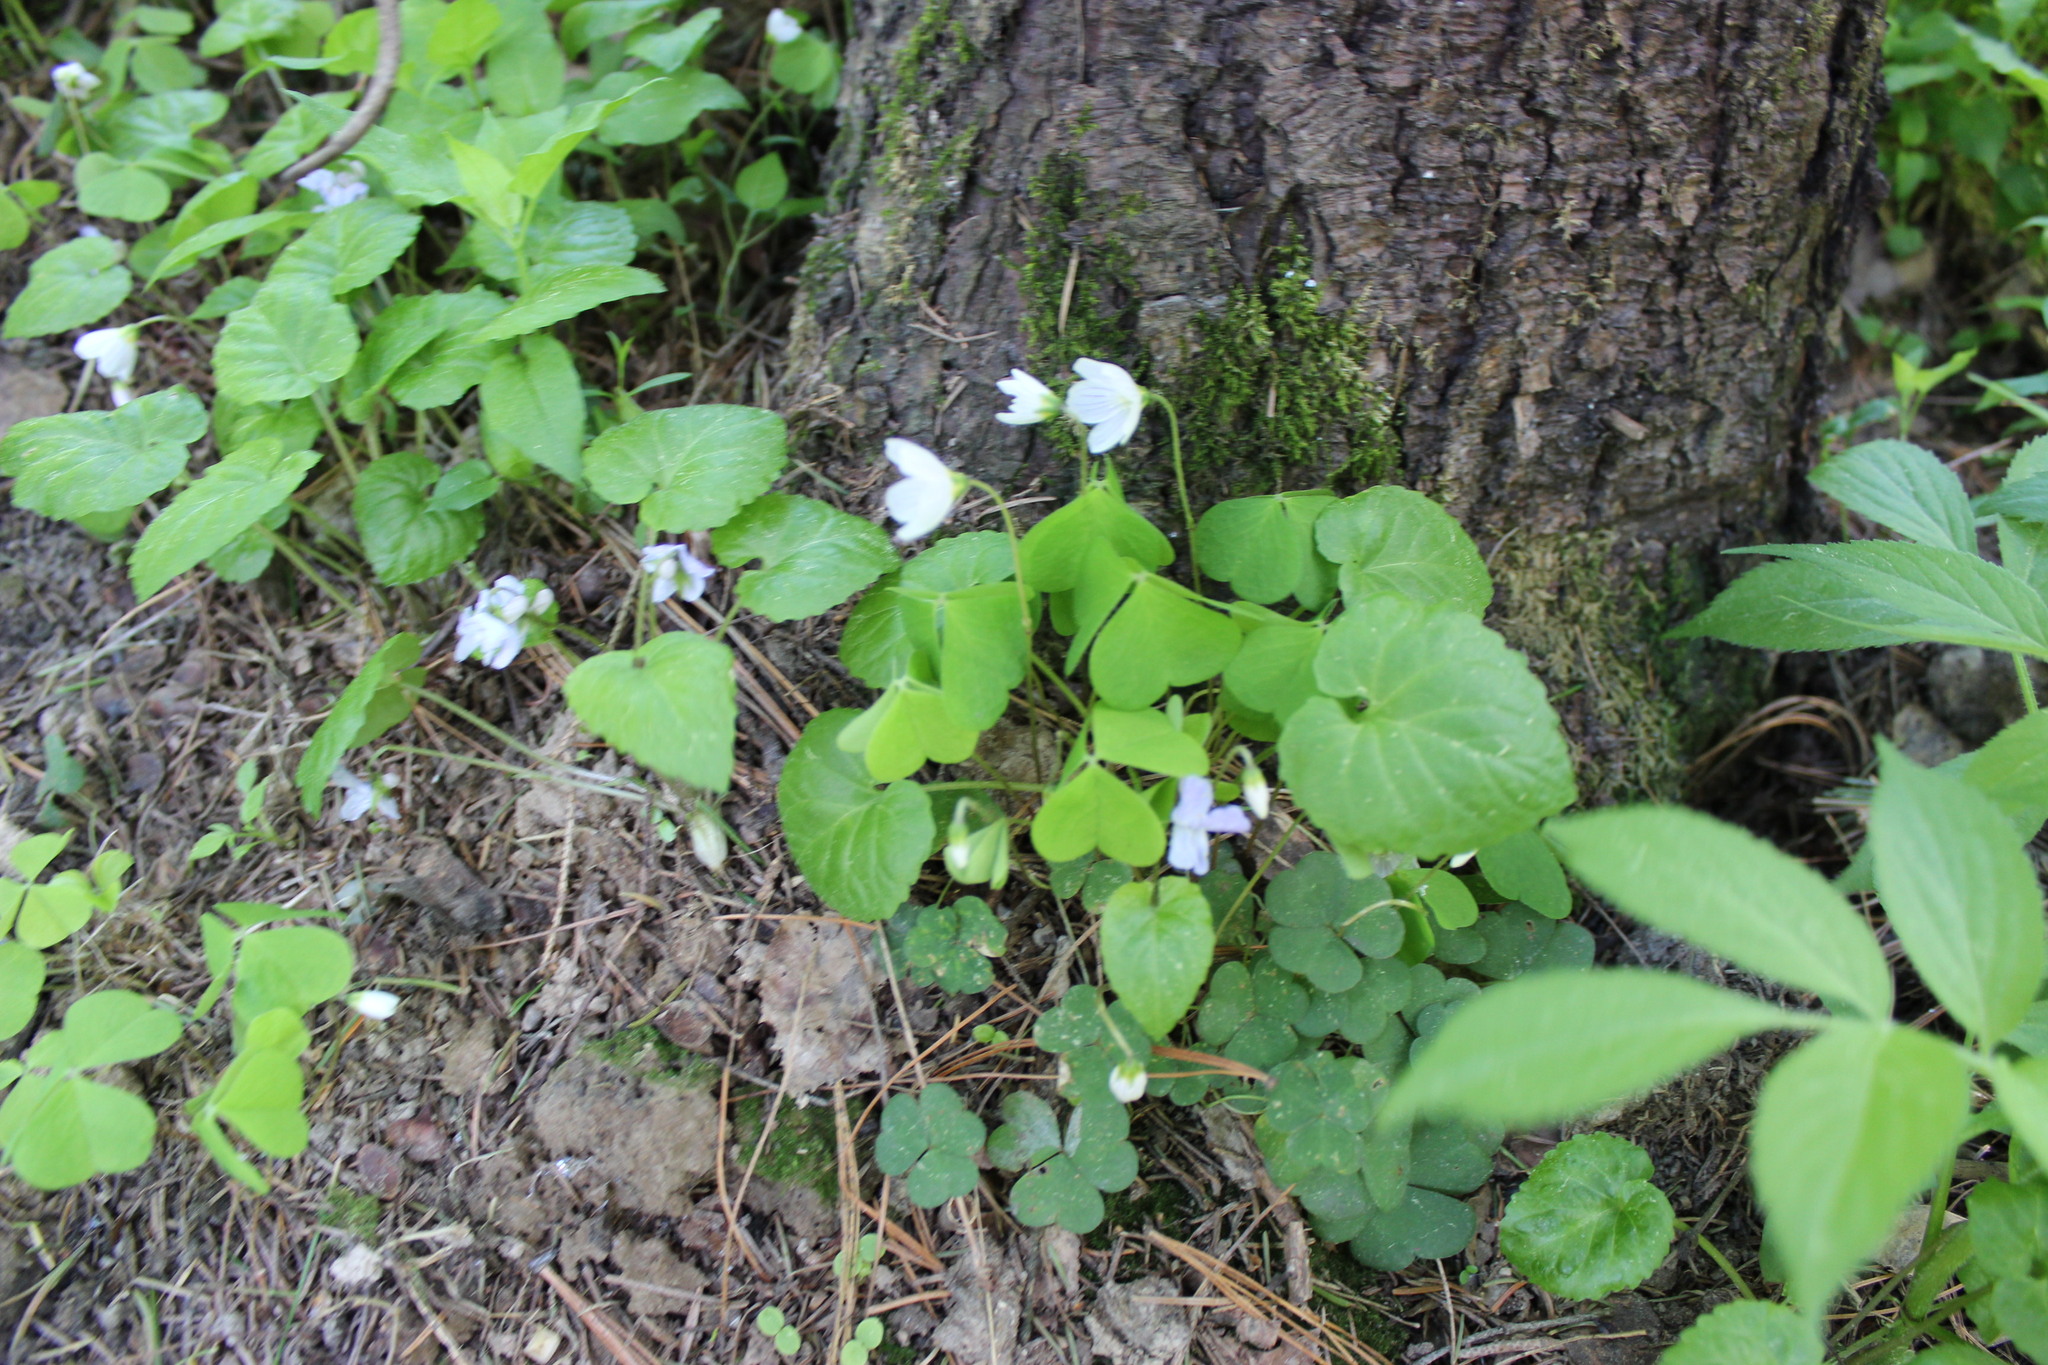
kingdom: Plantae
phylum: Tracheophyta
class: Magnoliopsida
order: Oxalidales
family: Oxalidaceae
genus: Oxalis
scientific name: Oxalis acetosella
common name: Wood-sorrel
